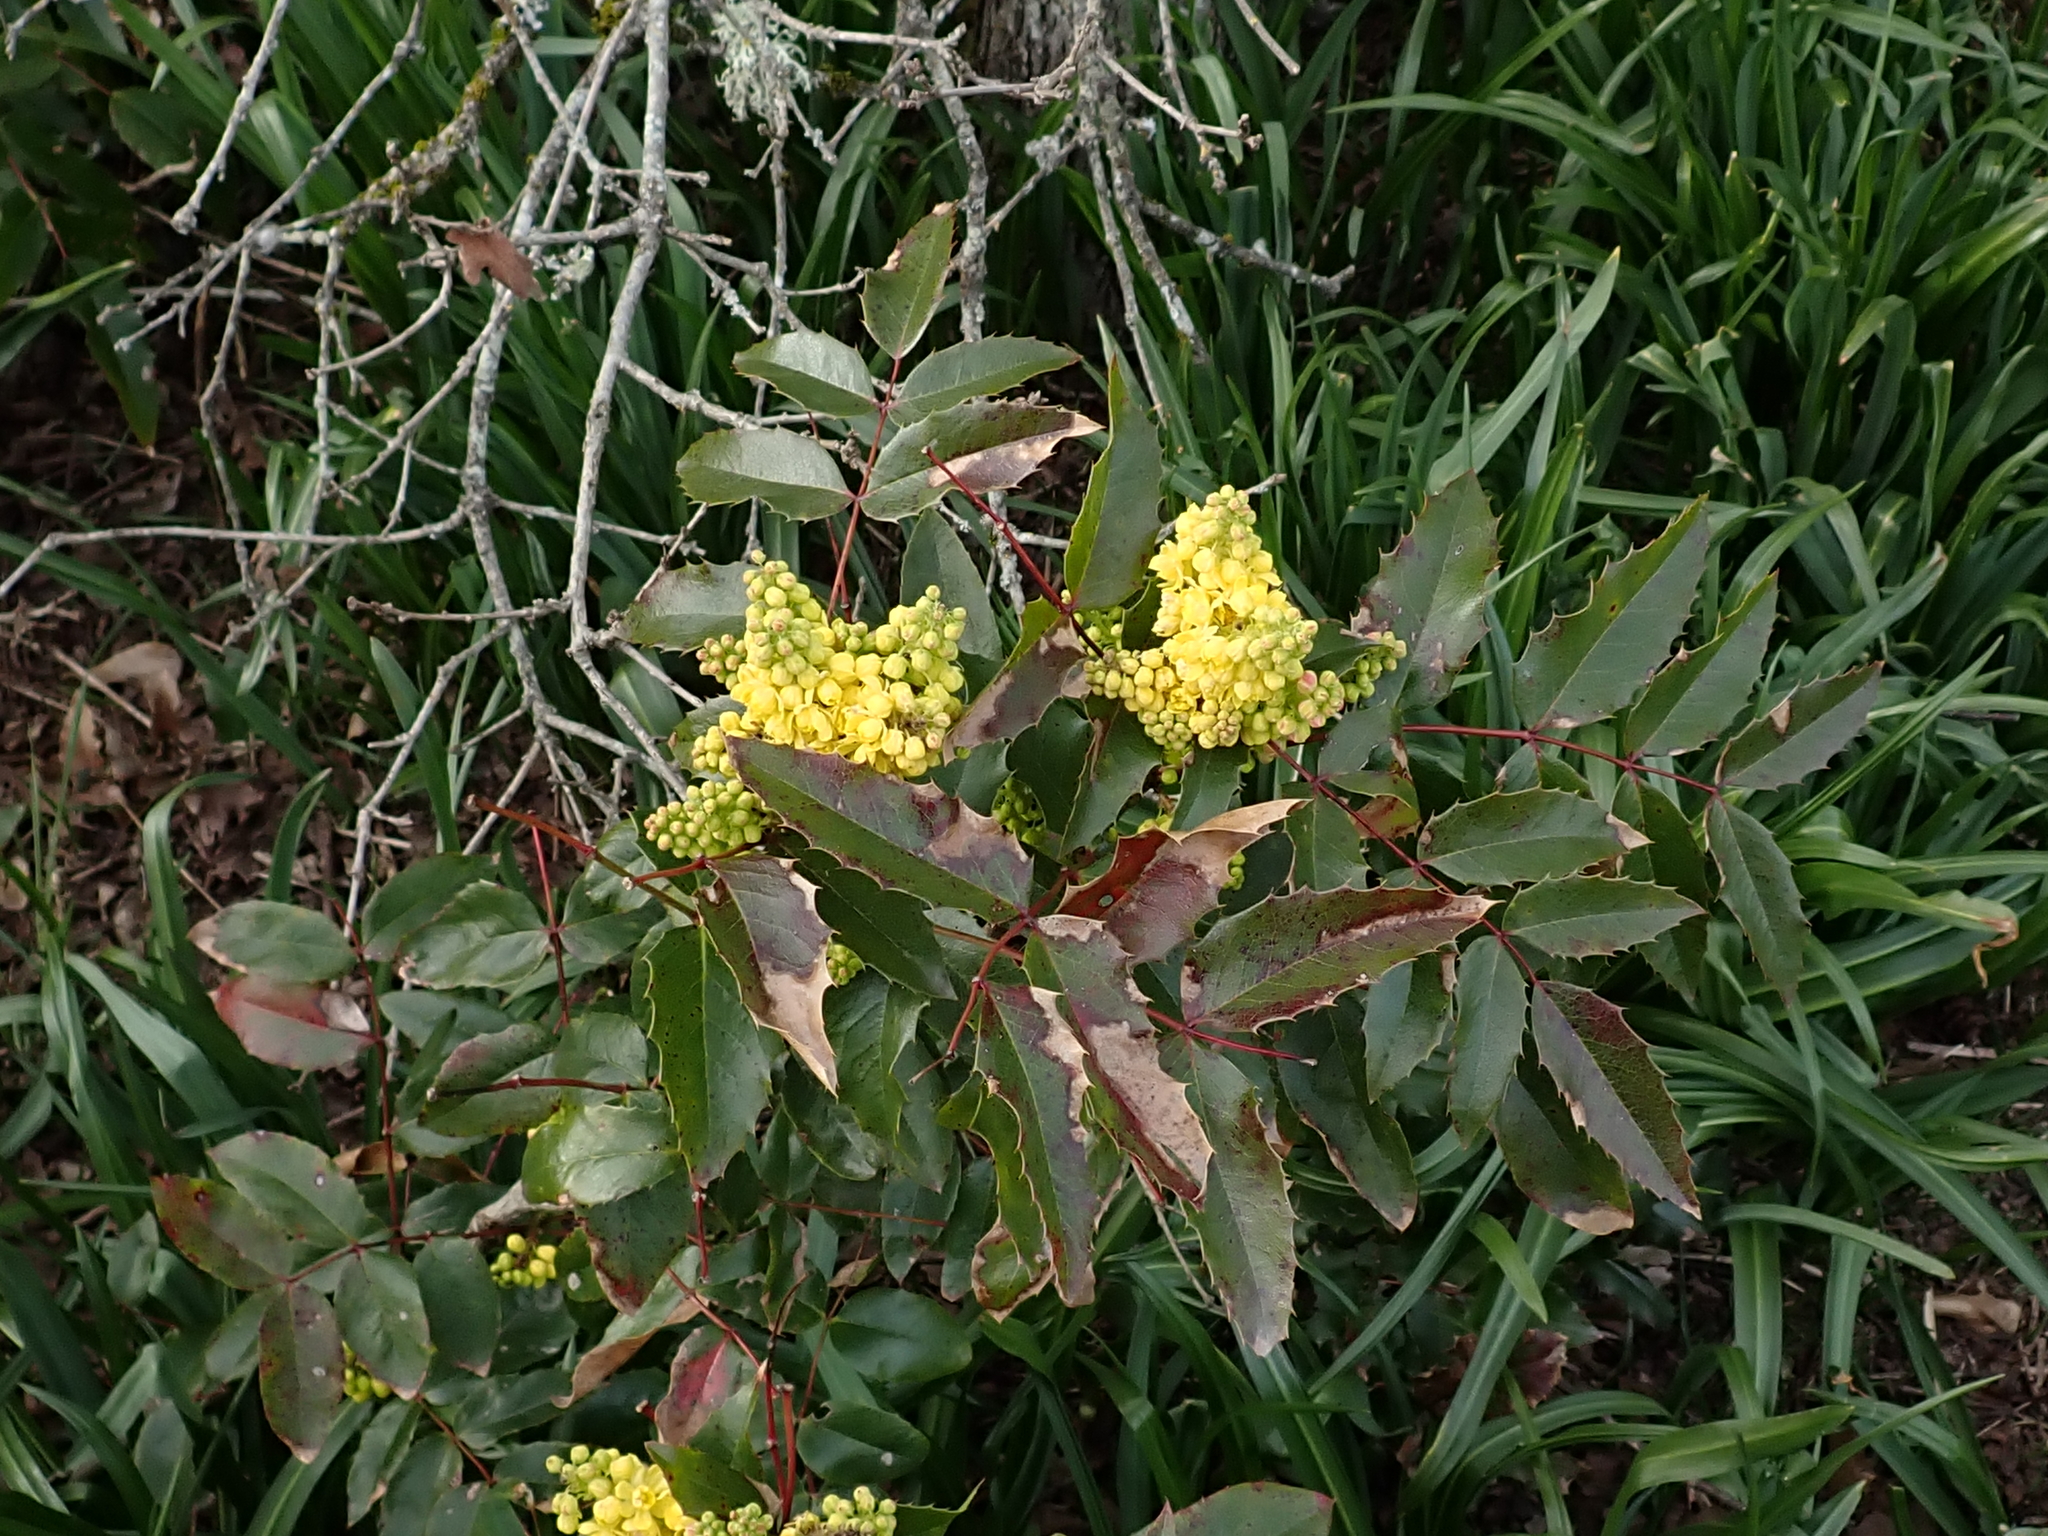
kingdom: Plantae
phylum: Tracheophyta
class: Magnoliopsida
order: Ranunculales
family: Berberidaceae
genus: Mahonia
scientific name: Mahonia aquifolium
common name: Oregon-grape
